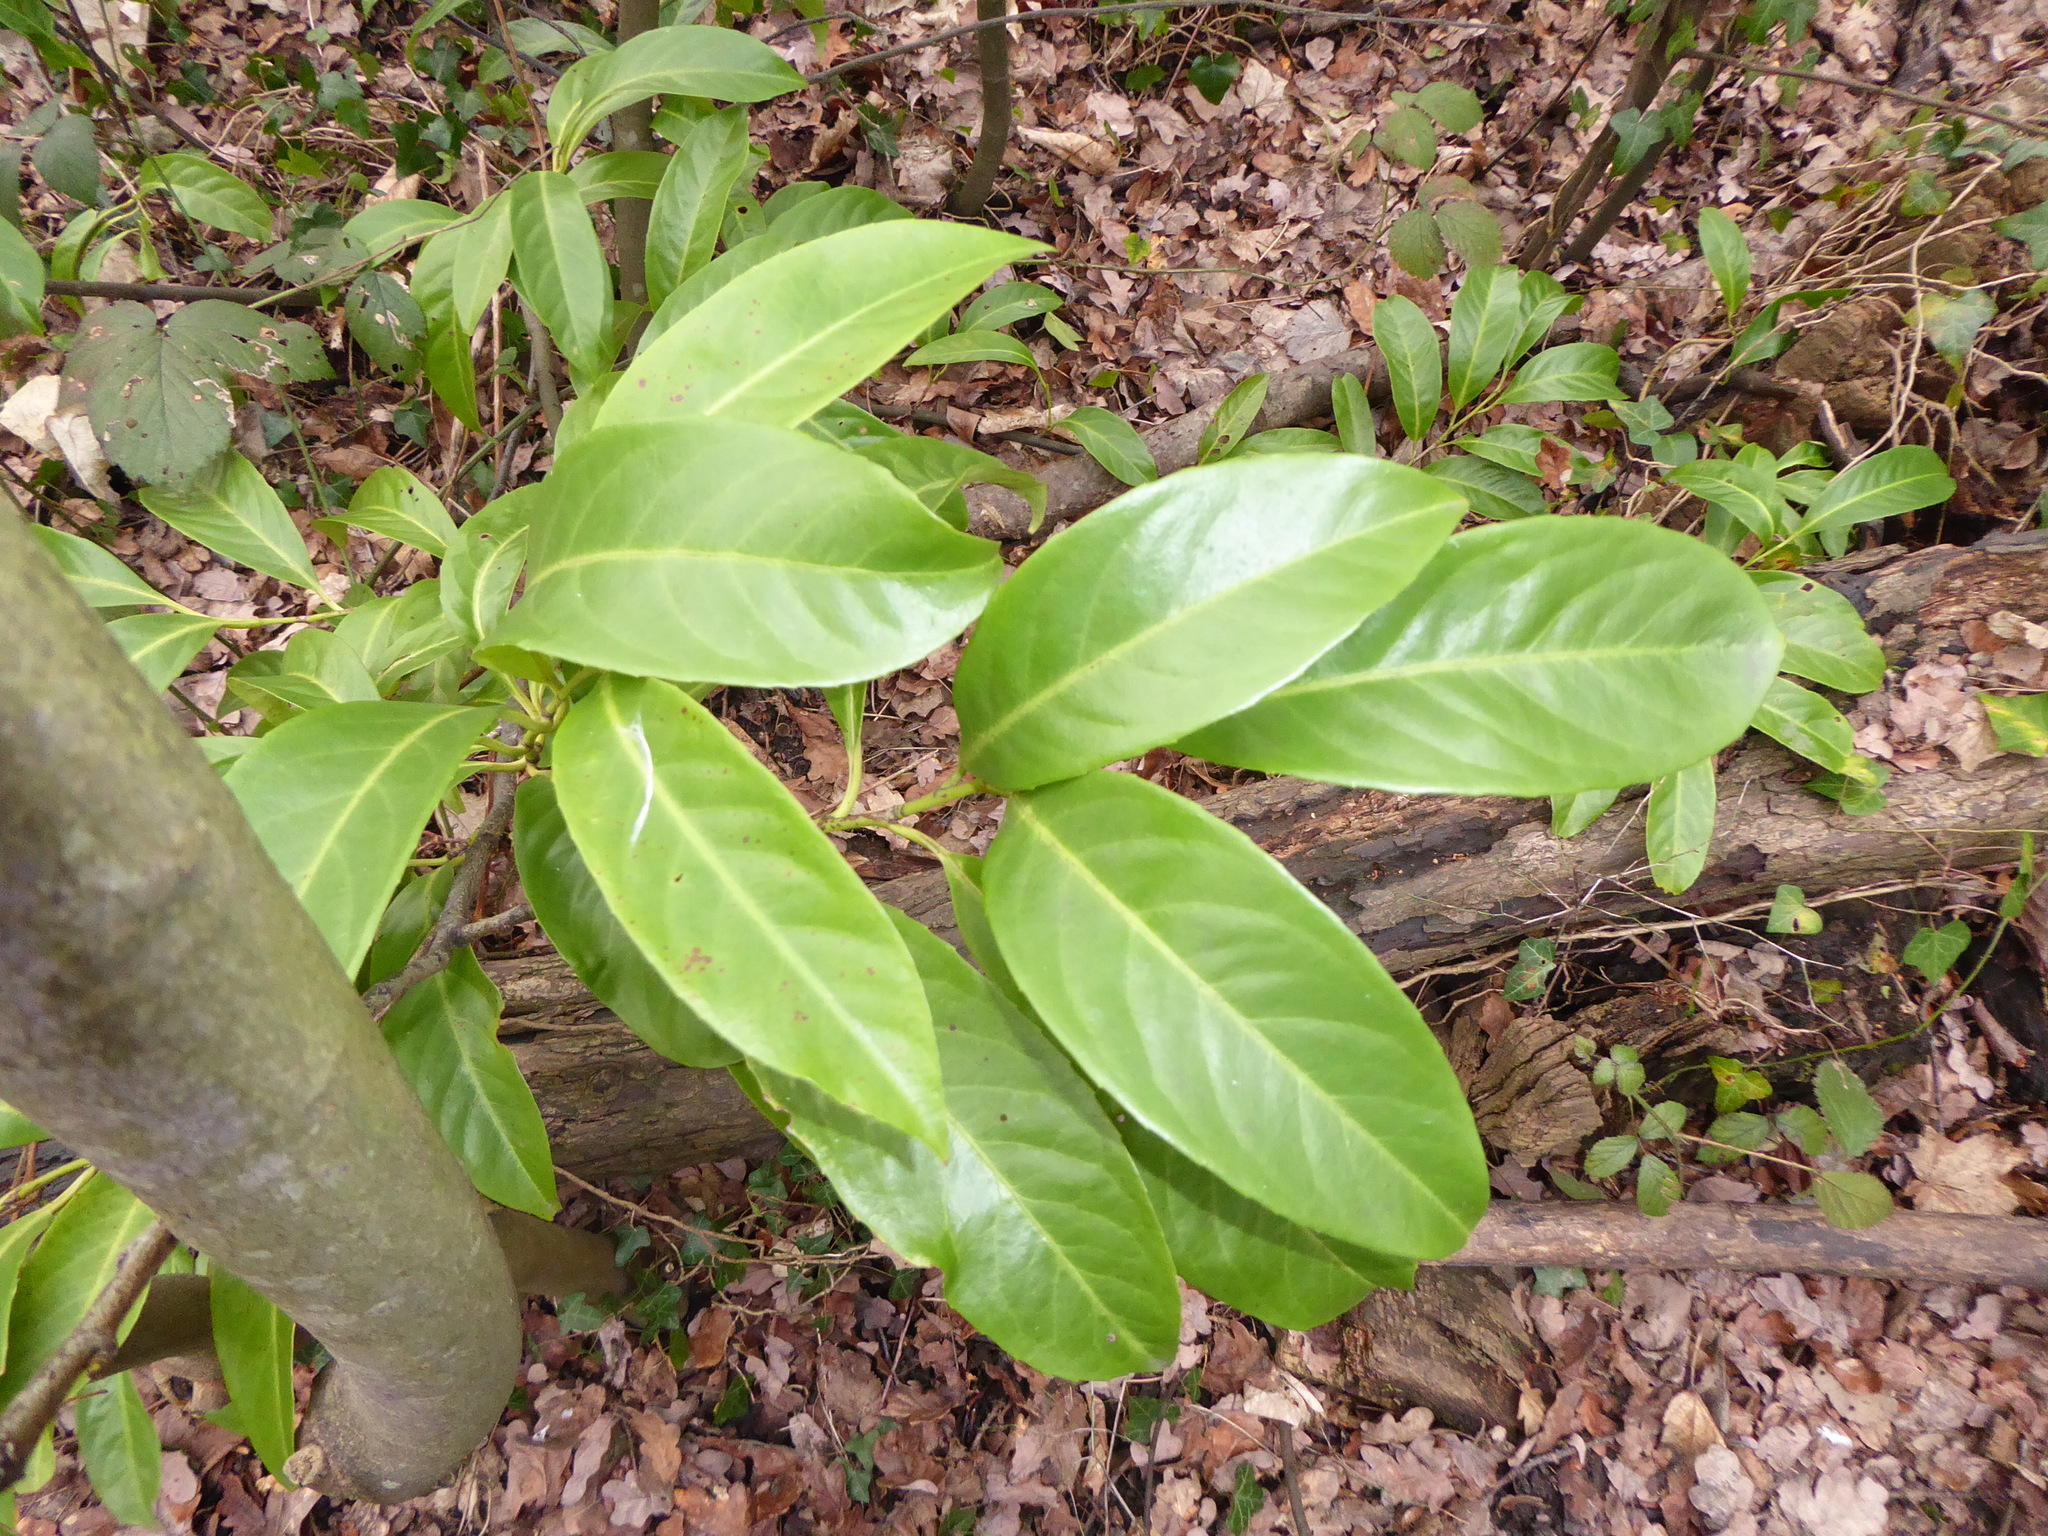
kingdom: Plantae
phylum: Tracheophyta
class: Magnoliopsida
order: Rosales
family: Rosaceae
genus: Prunus
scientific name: Prunus laurocerasus
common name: Cherry laurel
